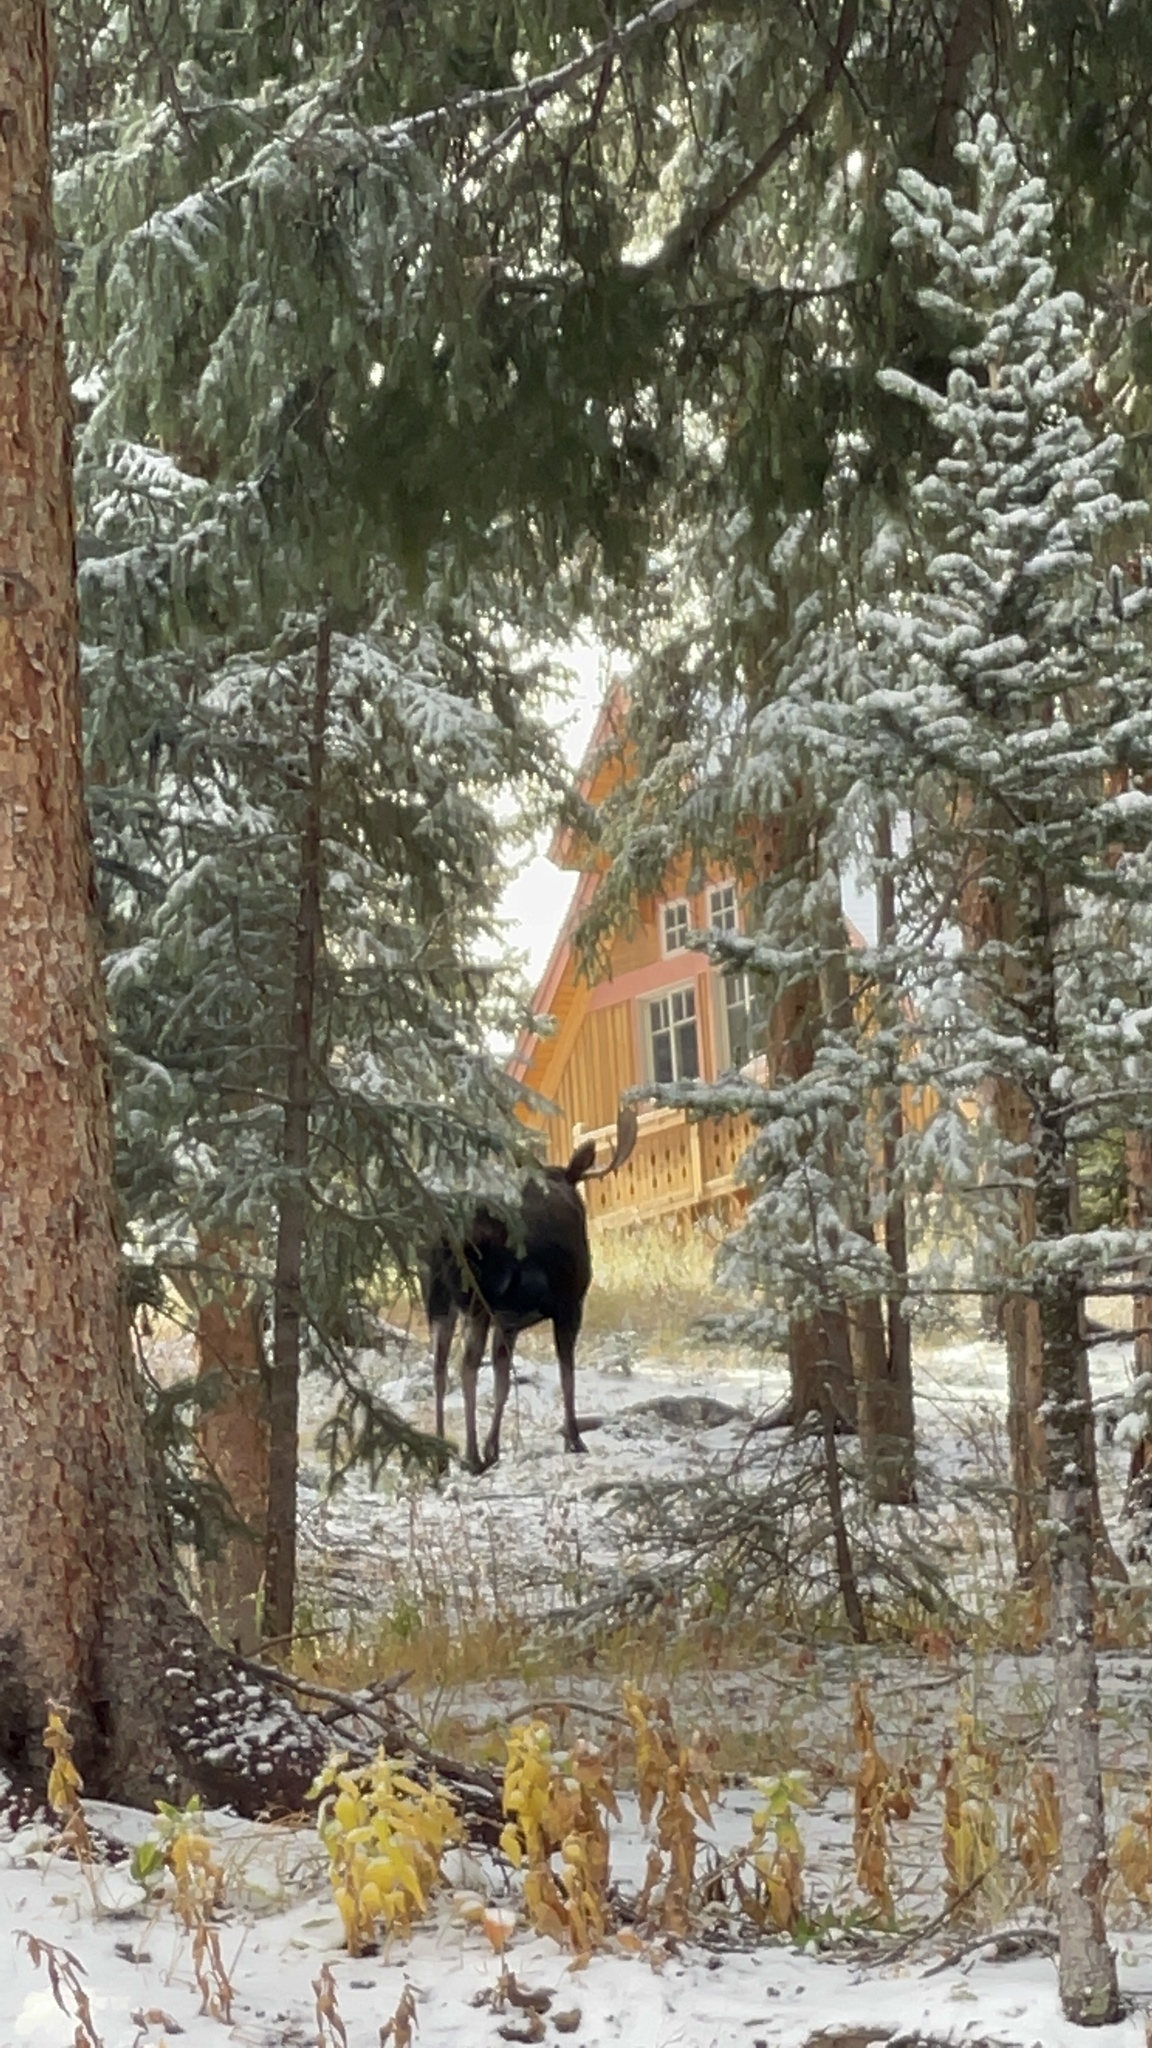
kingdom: Animalia
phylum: Chordata
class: Mammalia
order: Artiodactyla
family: Cervidae
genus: Alces
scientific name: Alces alces
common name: Moose
